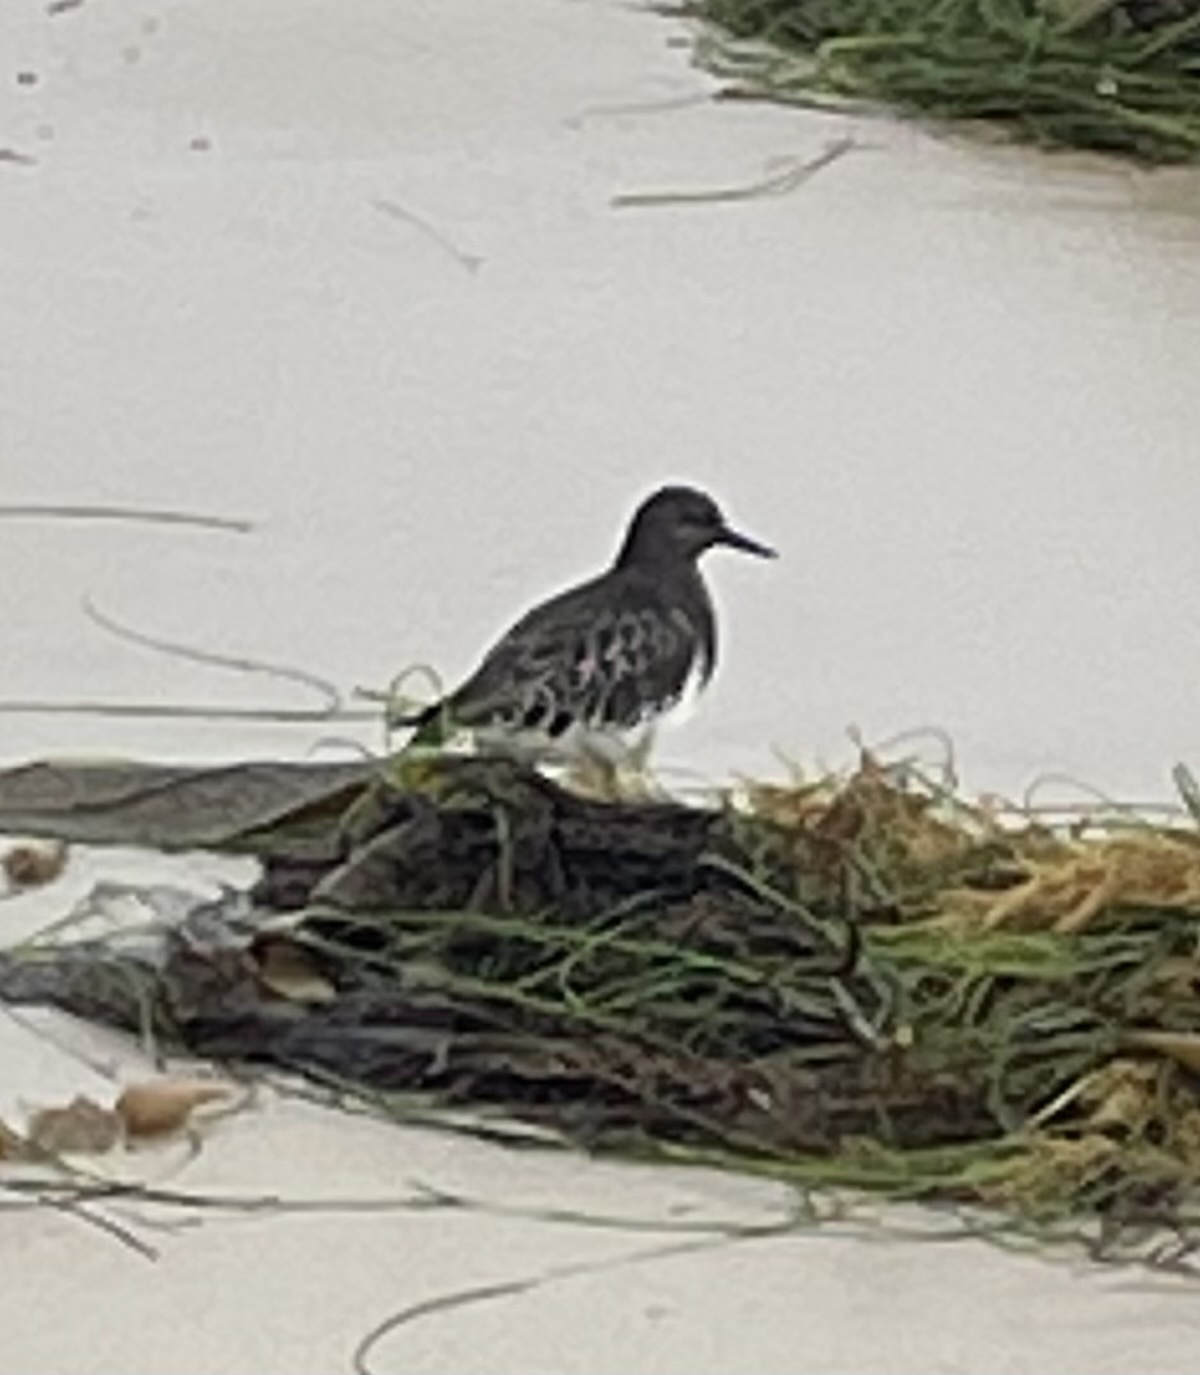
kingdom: Animalia
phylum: Chordata
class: Aves
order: Charadriiformes
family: Scolopacidae
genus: Arenaria
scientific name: Arenaria melanocephala
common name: Black turnstone
